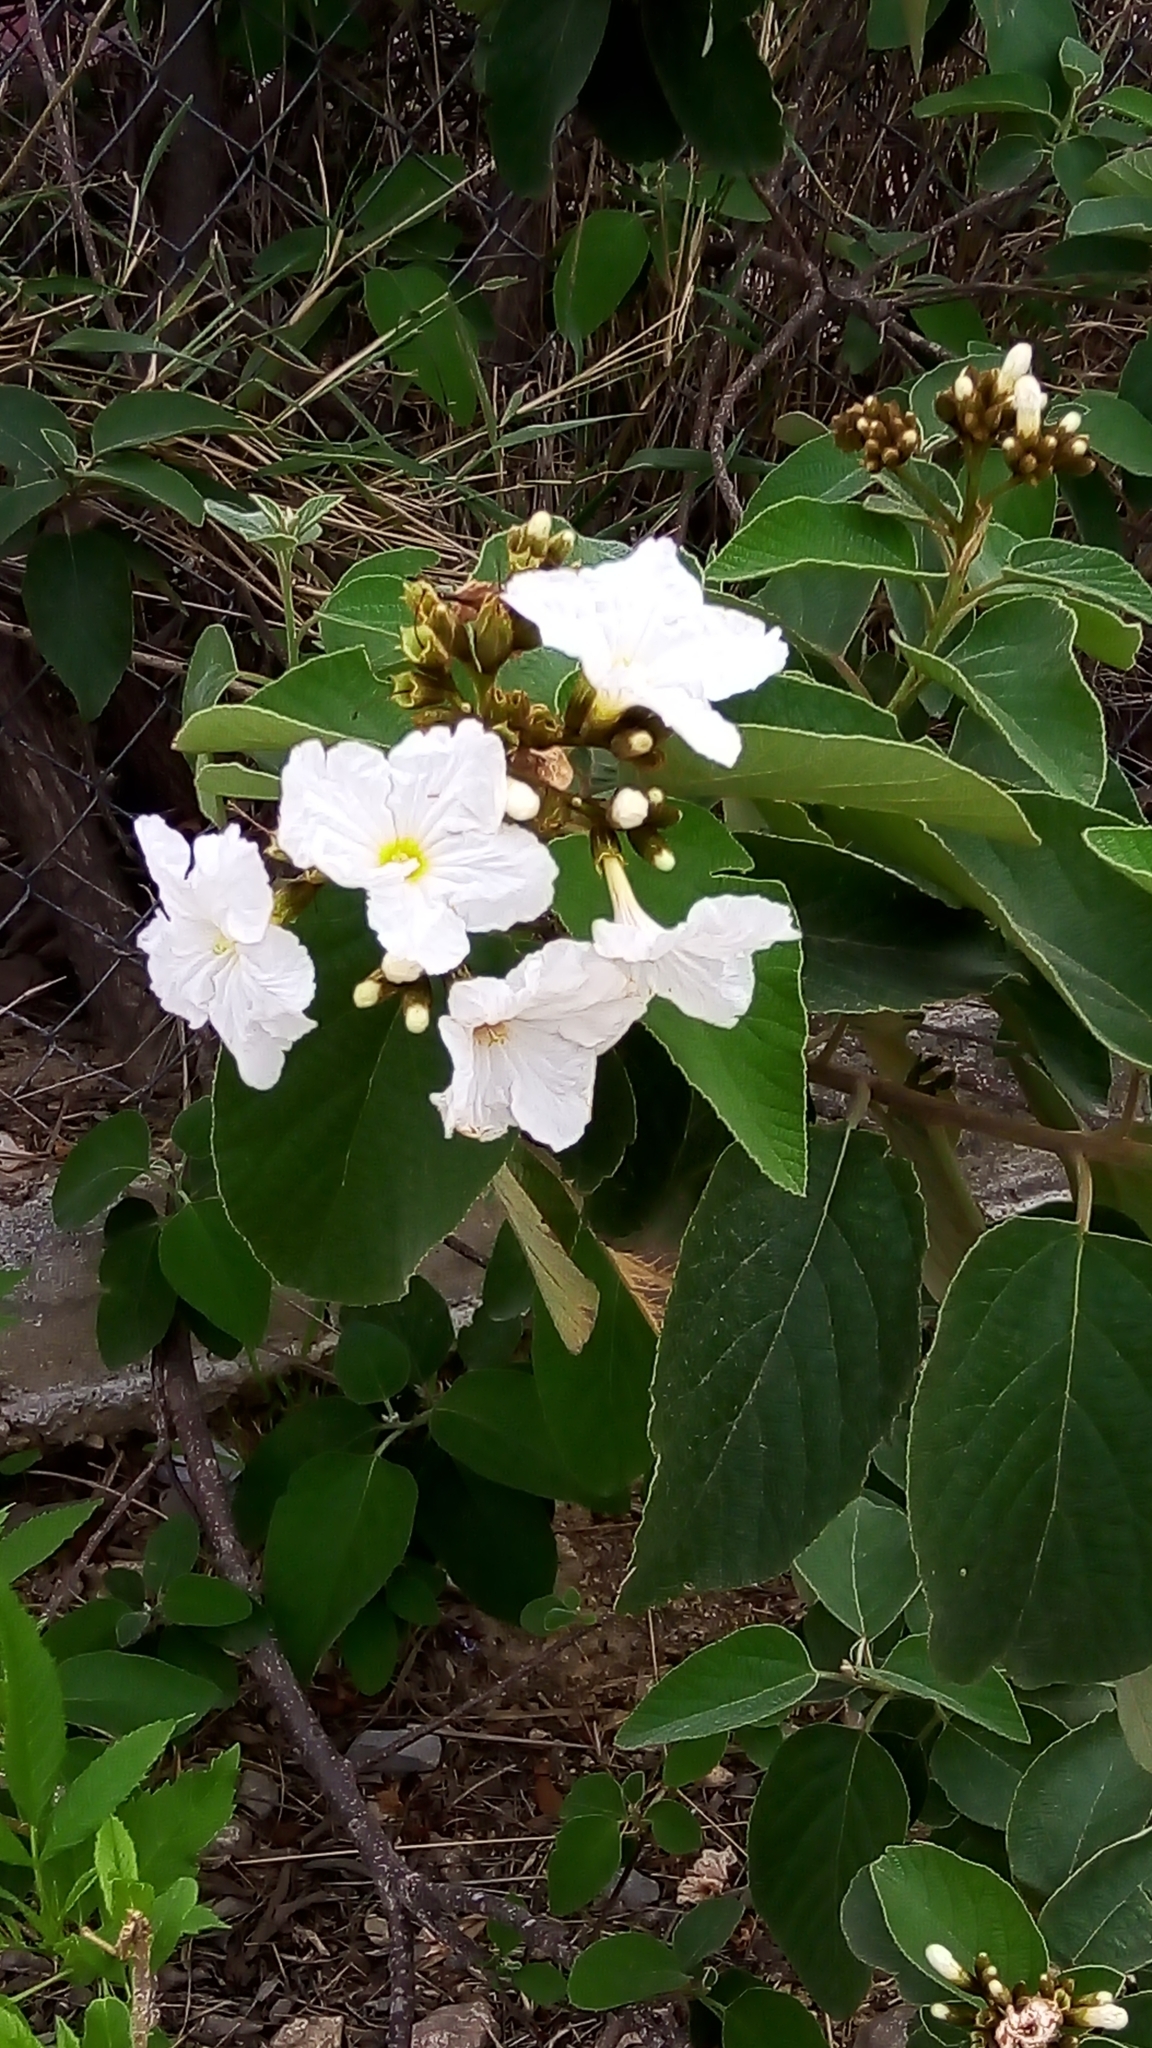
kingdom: Plantae
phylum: Tracheophyta
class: Magnoliopsida
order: Boraginales
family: Cordiaceae
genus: Cordia
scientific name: Cordia boissieri
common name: Mexican-olive
